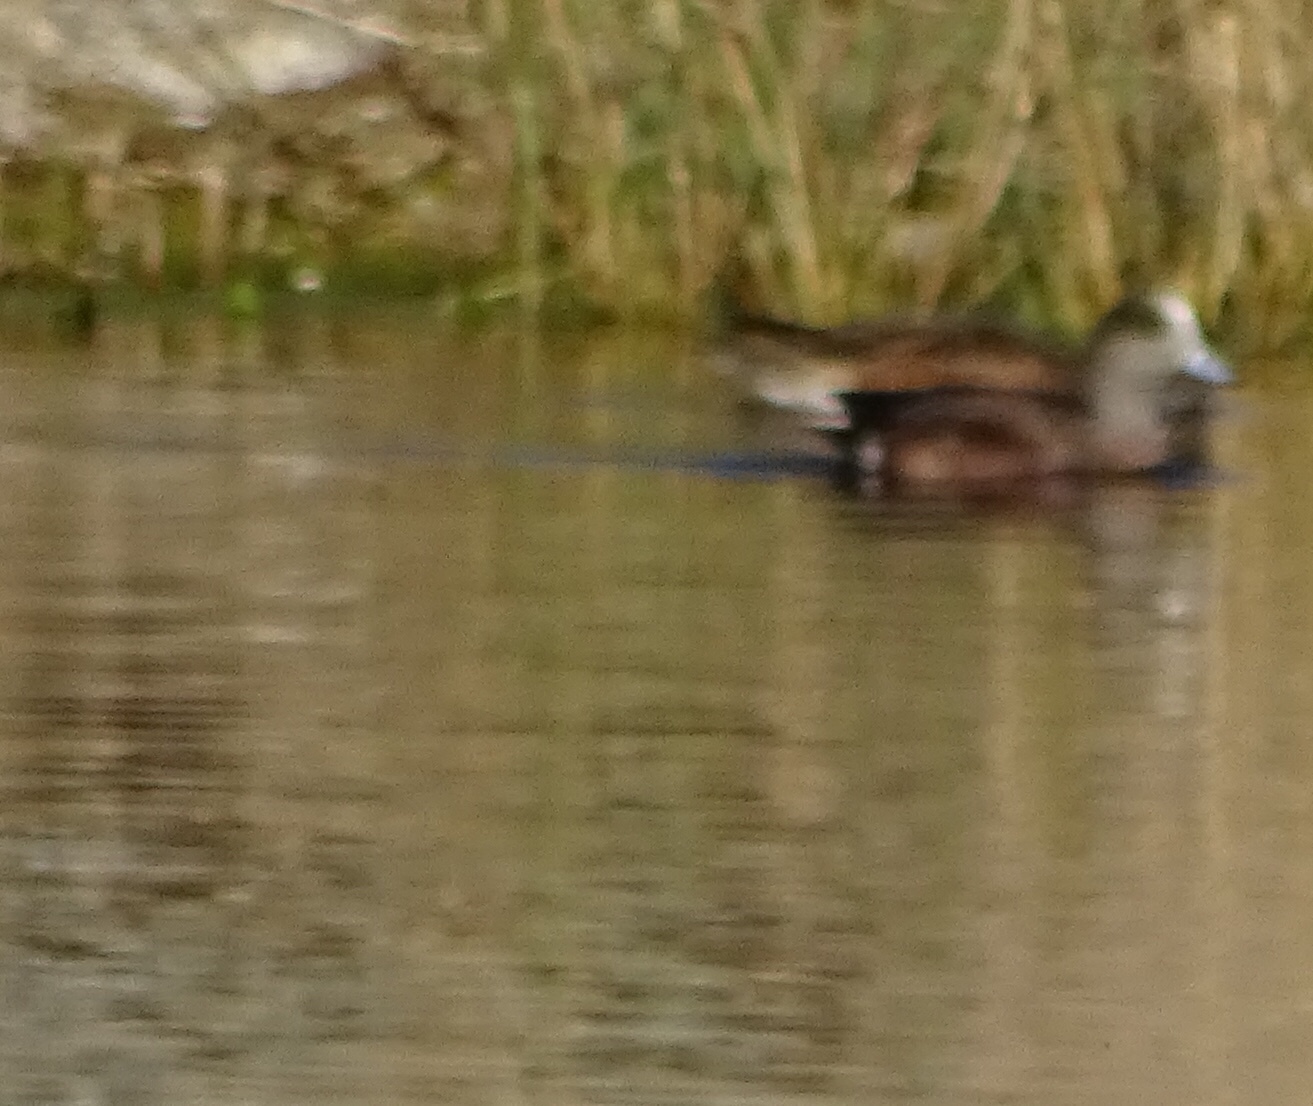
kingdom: Animalia
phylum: Chordata
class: Aves
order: Anseriformes
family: Anatidae
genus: Mareca
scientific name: Mareca americana
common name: American wigeon
